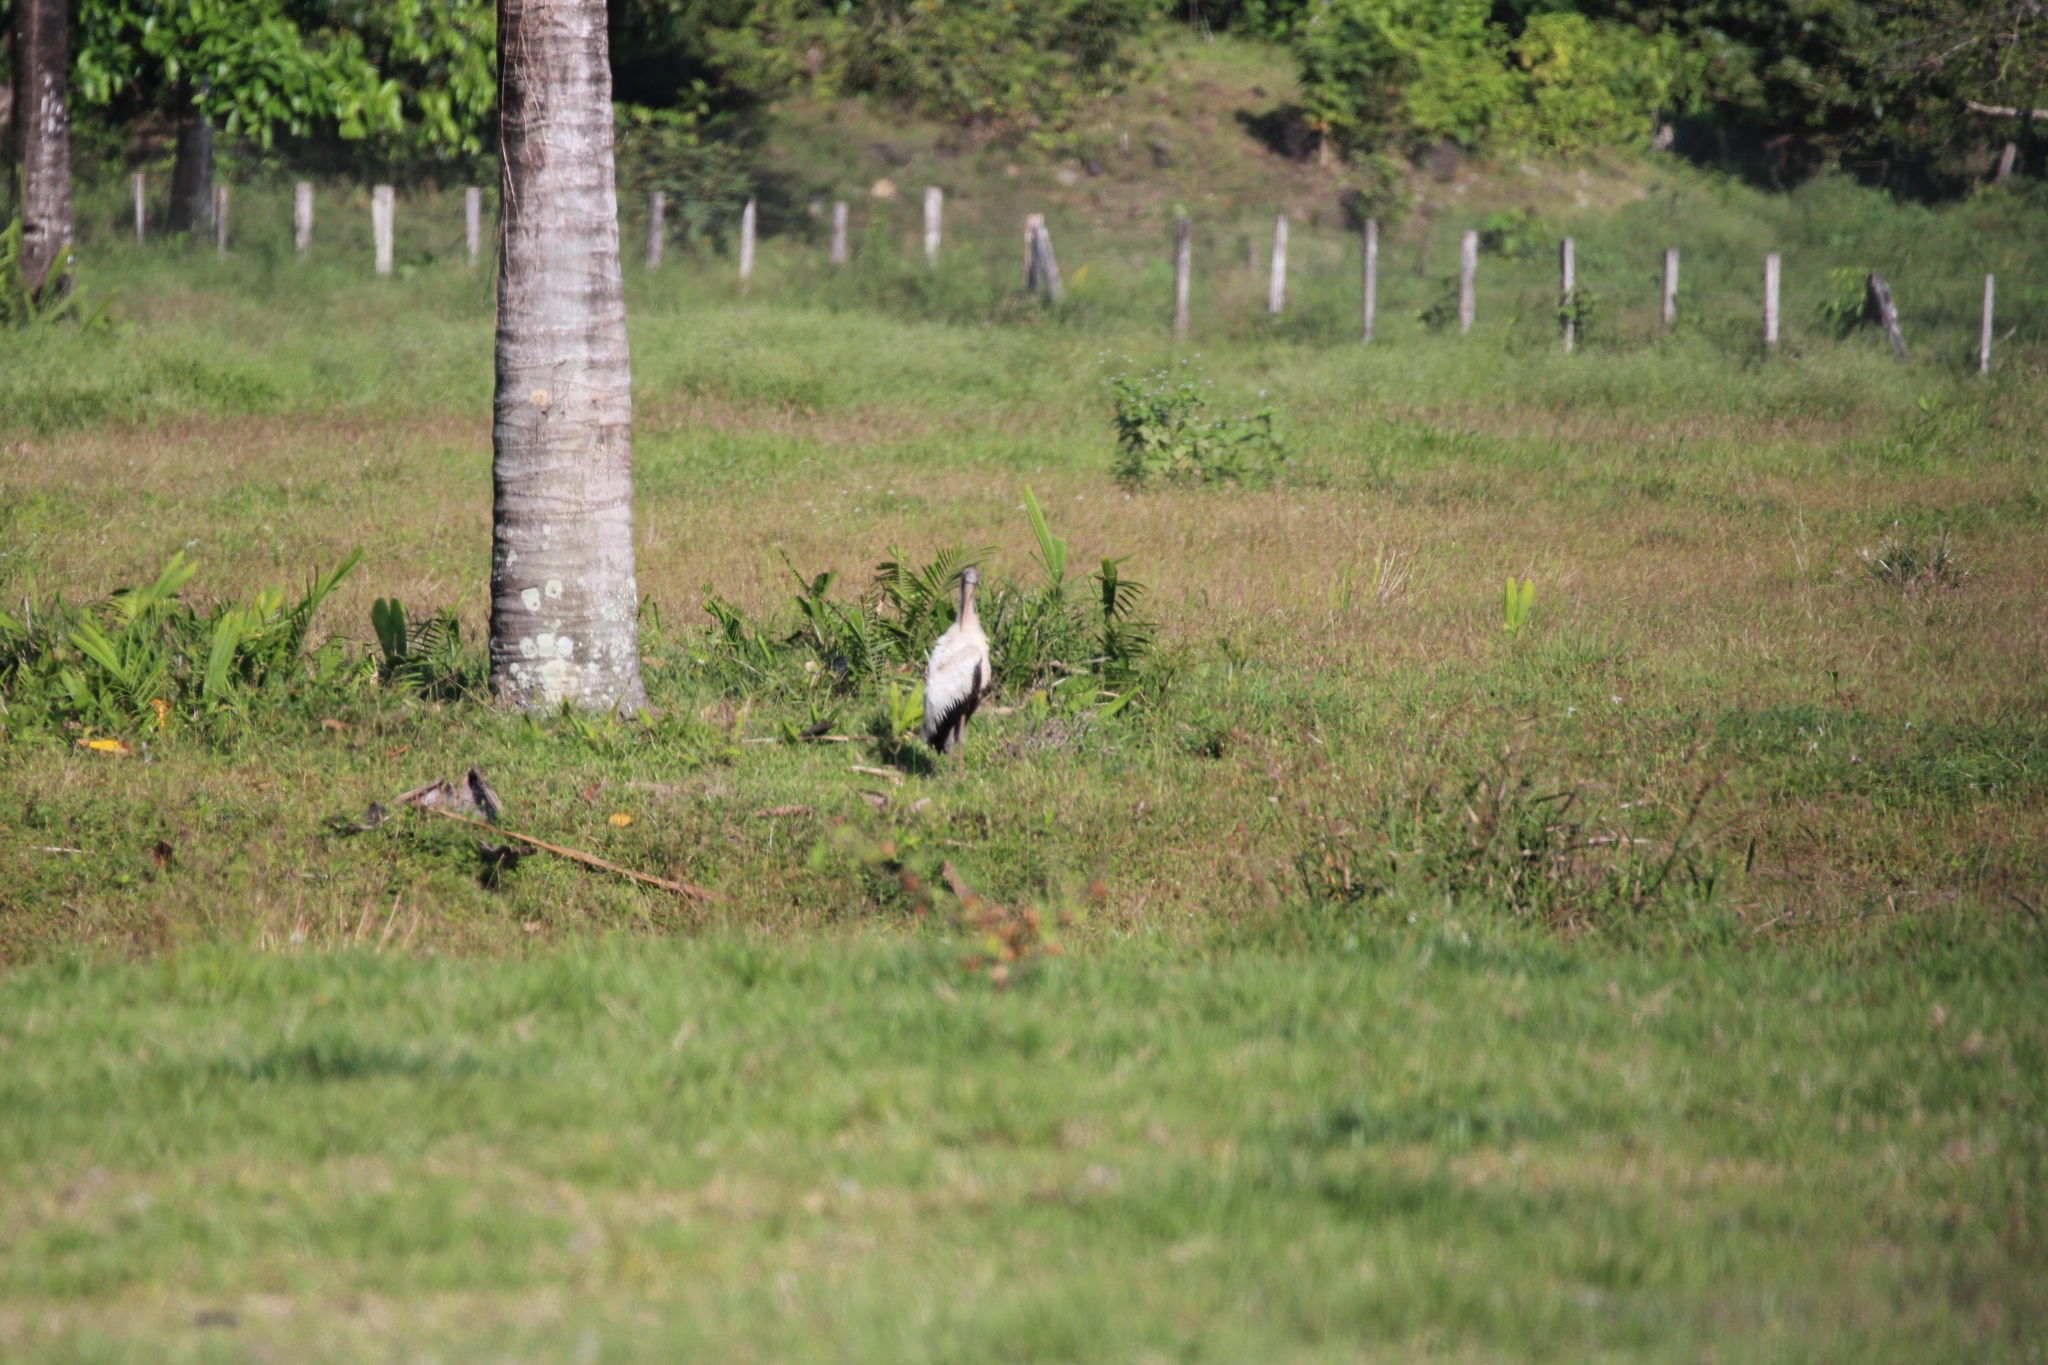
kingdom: Animalia
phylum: Chordata
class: Aves
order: Ciconiiformes
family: Ciconiidae
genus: Mycteria
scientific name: Mycteria americana
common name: Wood stork
